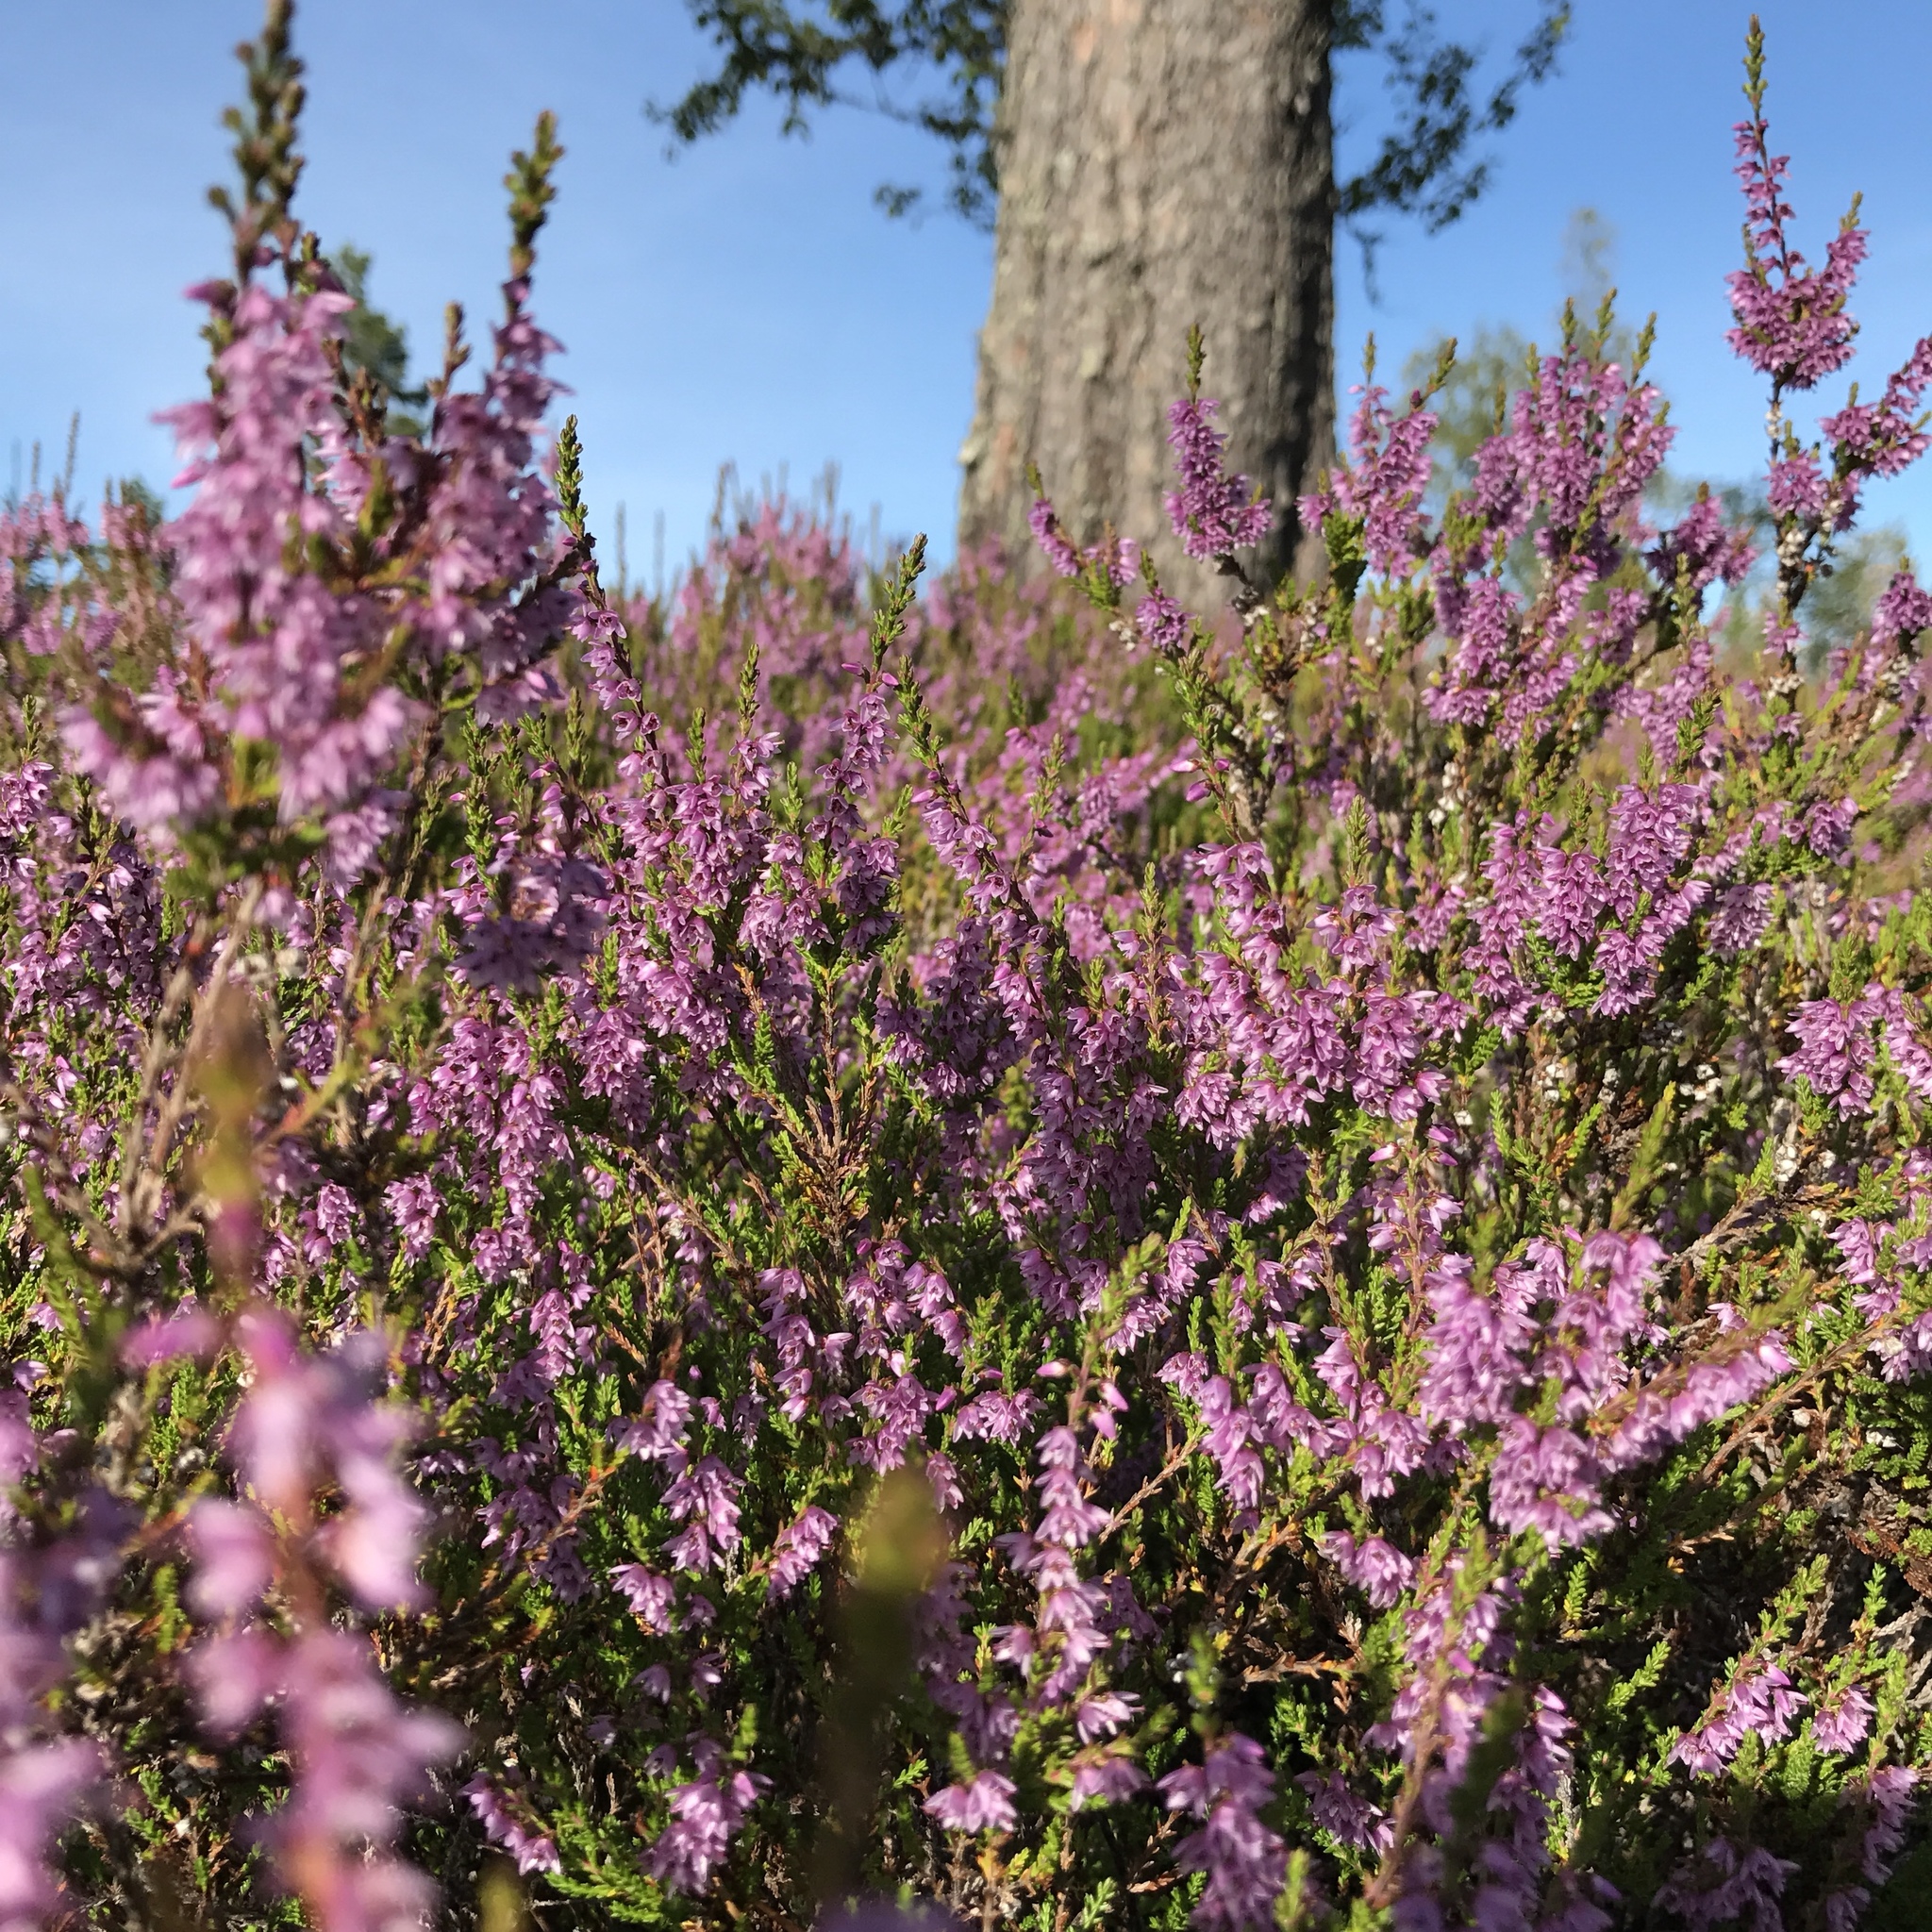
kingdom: Plantae
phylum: Tracheophyta
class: Magnoliopsida
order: Ericales
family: Ericaceae
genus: Calluna
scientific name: Calluna vulgaris
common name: Heather
